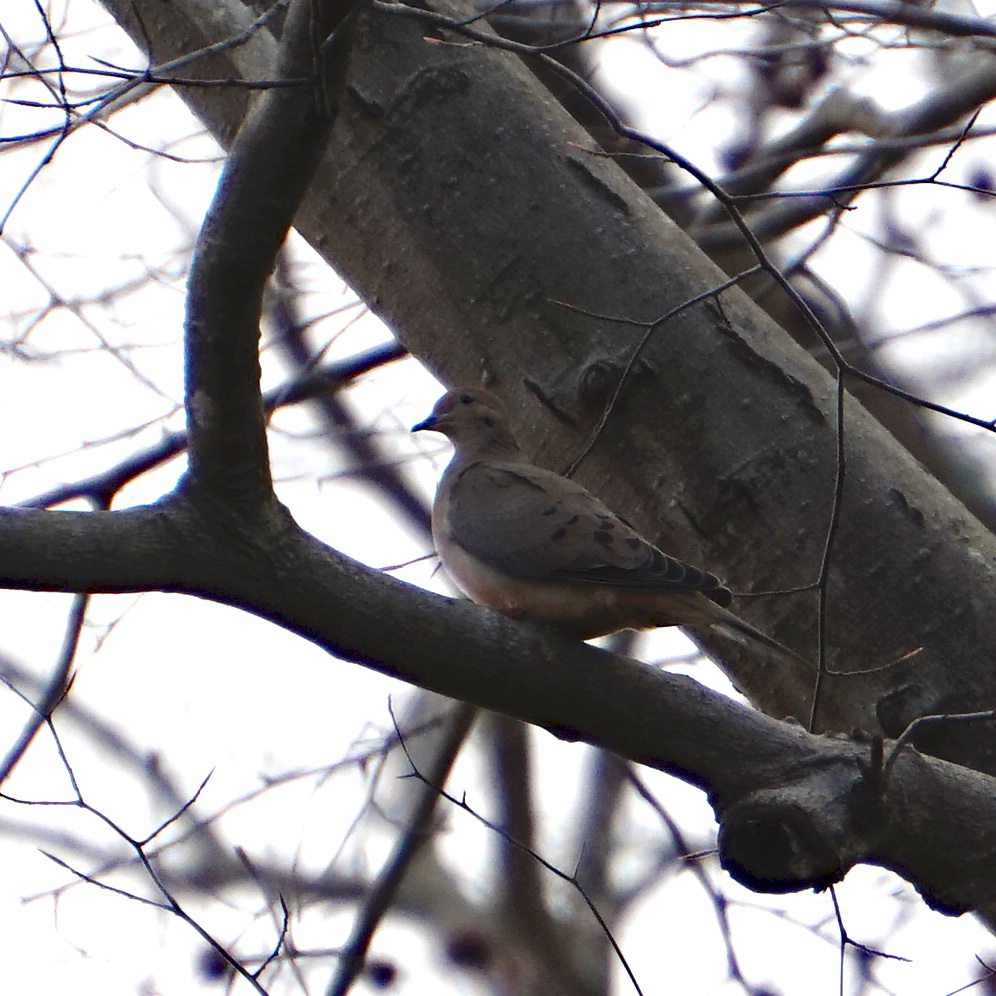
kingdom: Animalia
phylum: Chordata
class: Aves
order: Columbiformes
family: Columbidae
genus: Zenaida
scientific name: Zenaida macroura
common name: Mourning dove
